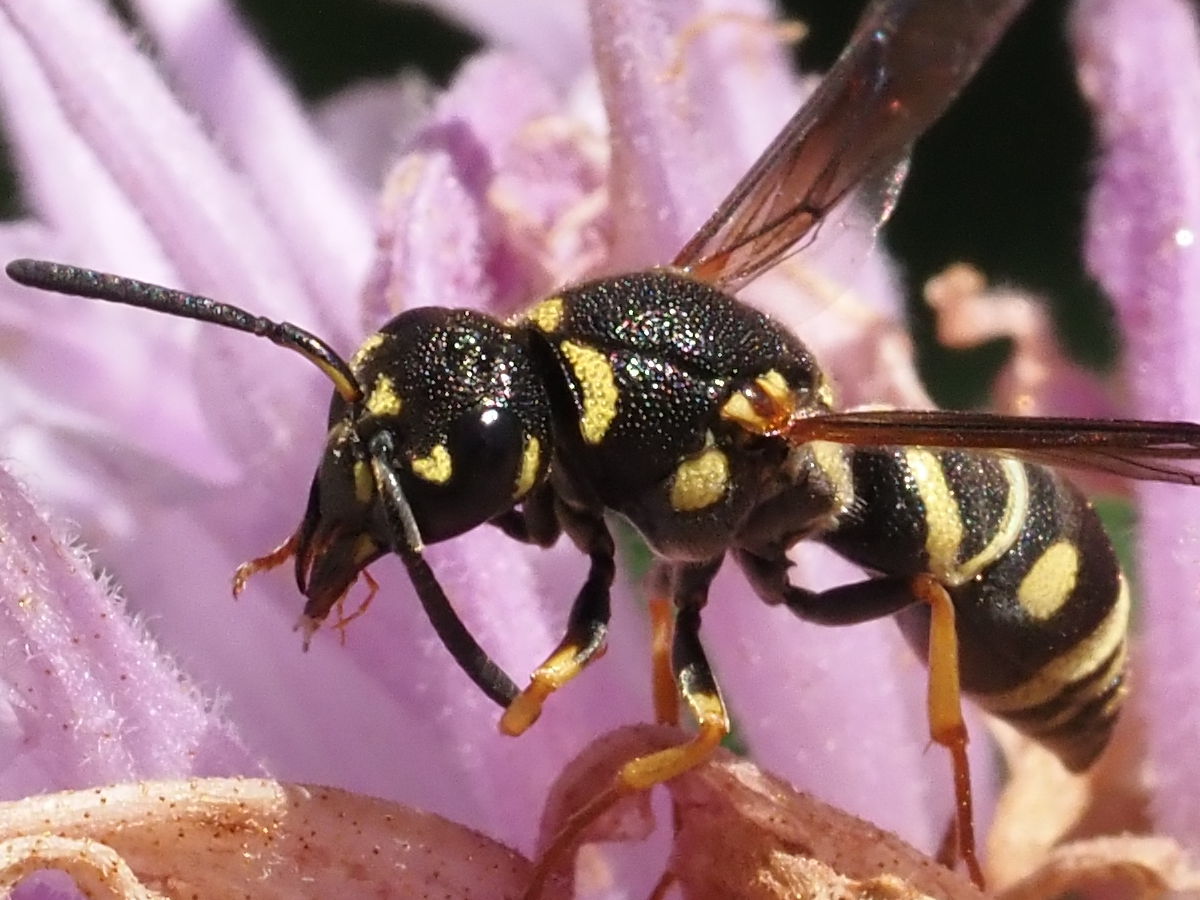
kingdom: Animalia
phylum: Arthropoda
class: Insecta
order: Hymenoptera
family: Eumenidae
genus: Parancistrocerus
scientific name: Parancistrocerus leionotus
